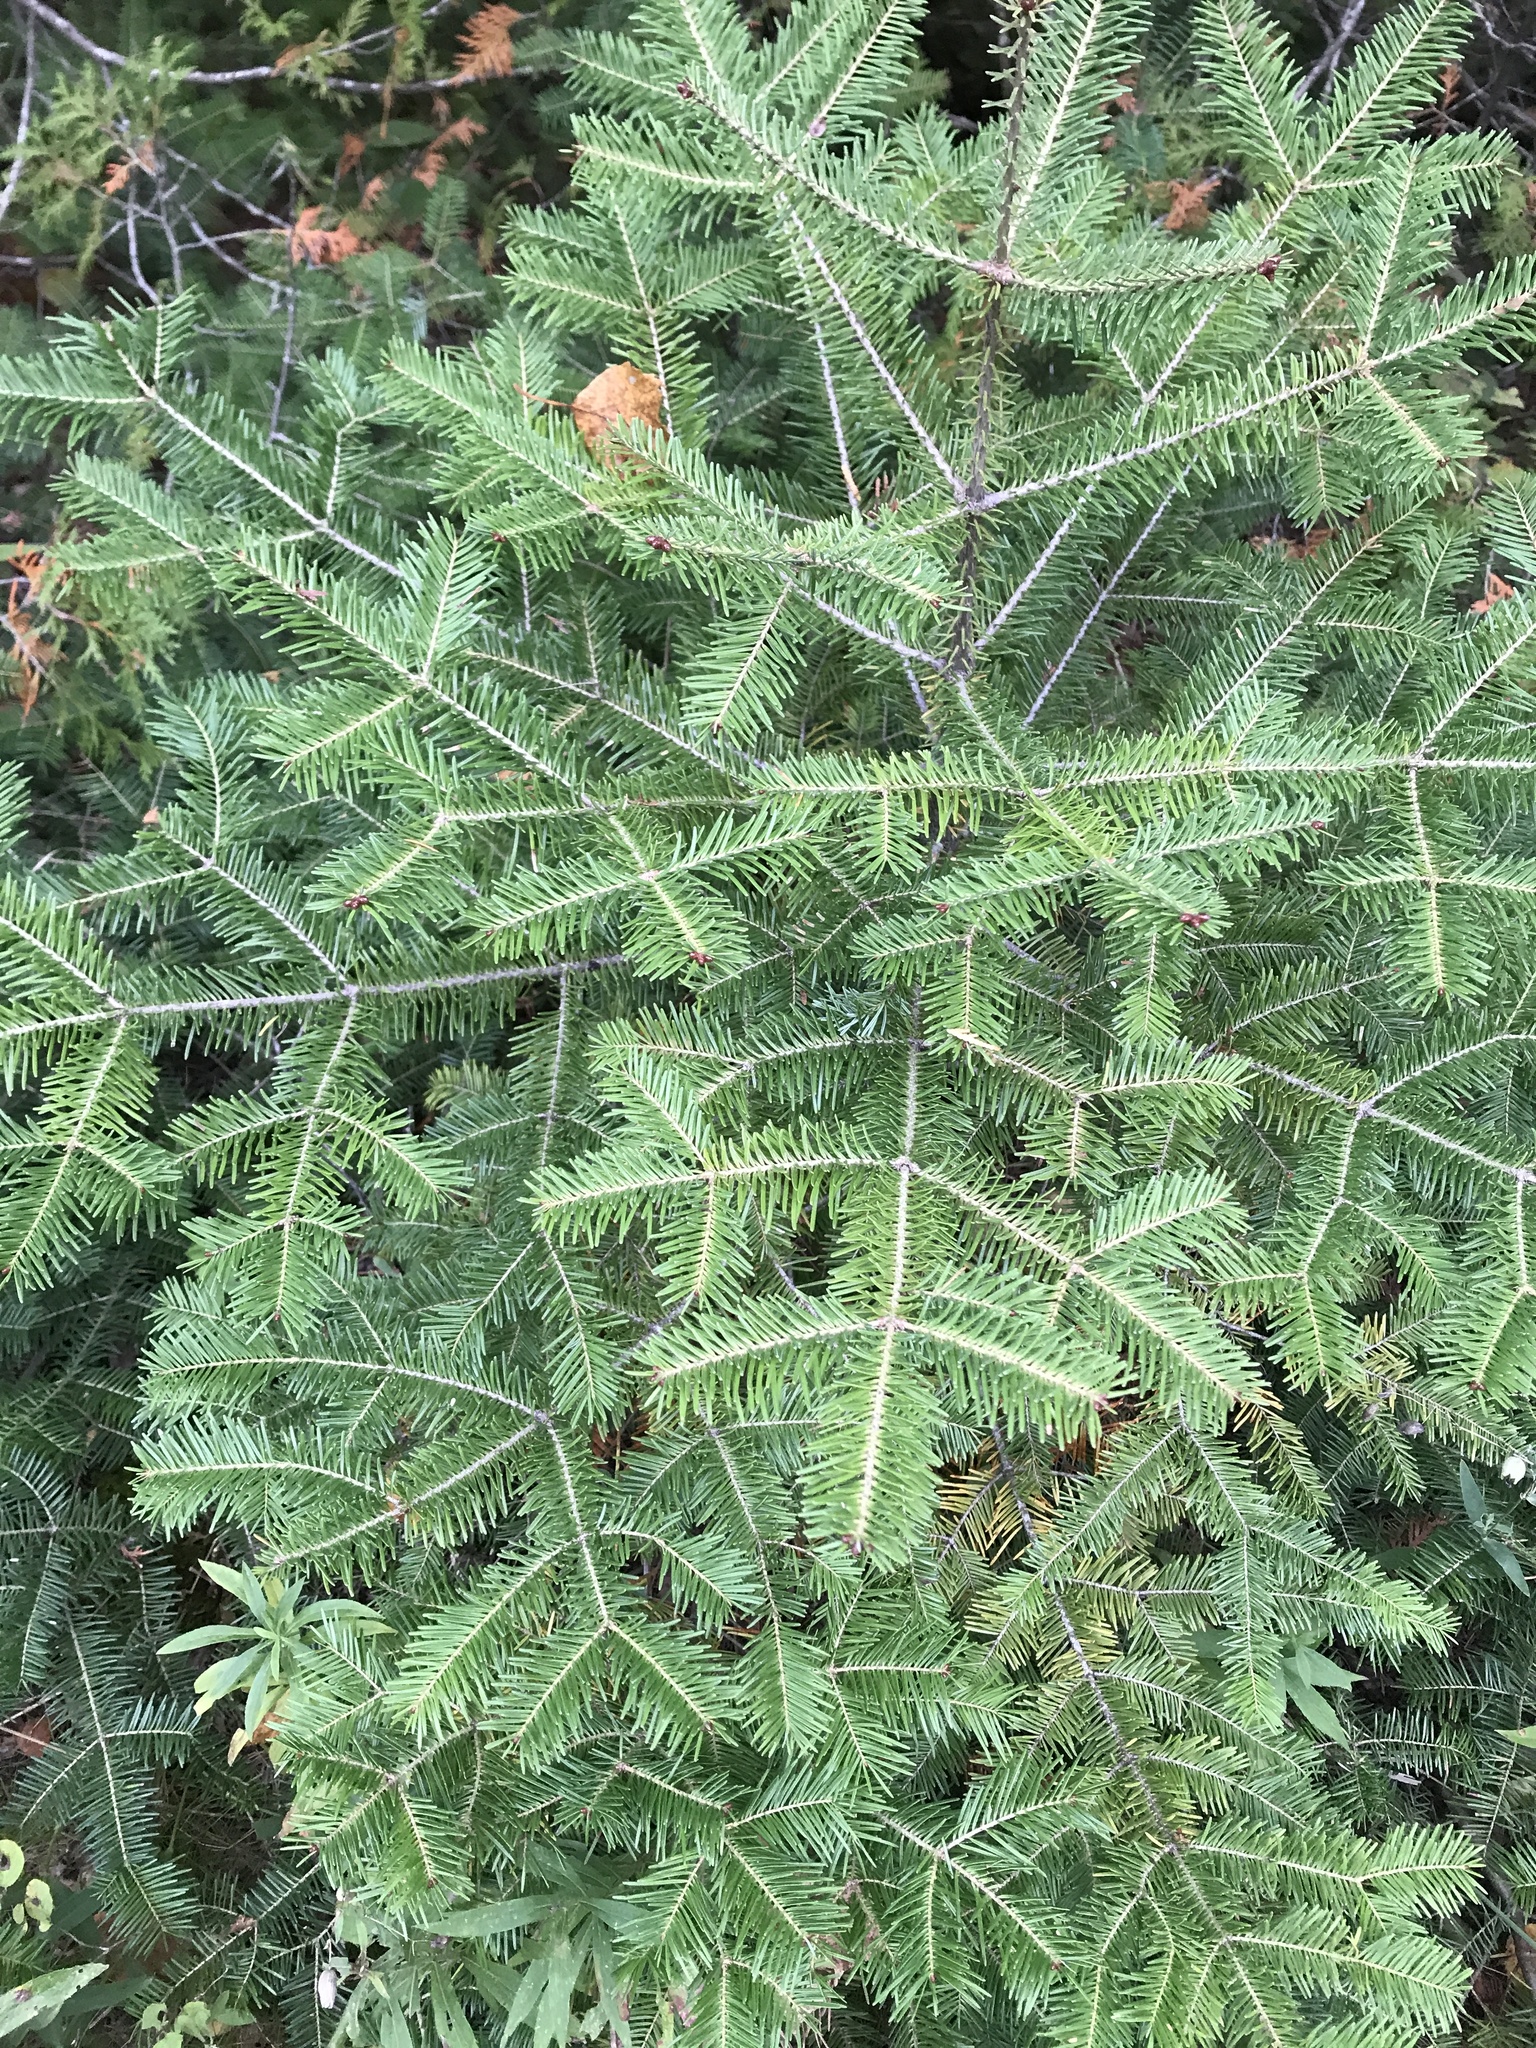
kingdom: Plantae
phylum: Tracheophyta
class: Pinopsida
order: Pinales
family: Pinaceae
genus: Abies
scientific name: Abies balsamea
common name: Balsam fir
